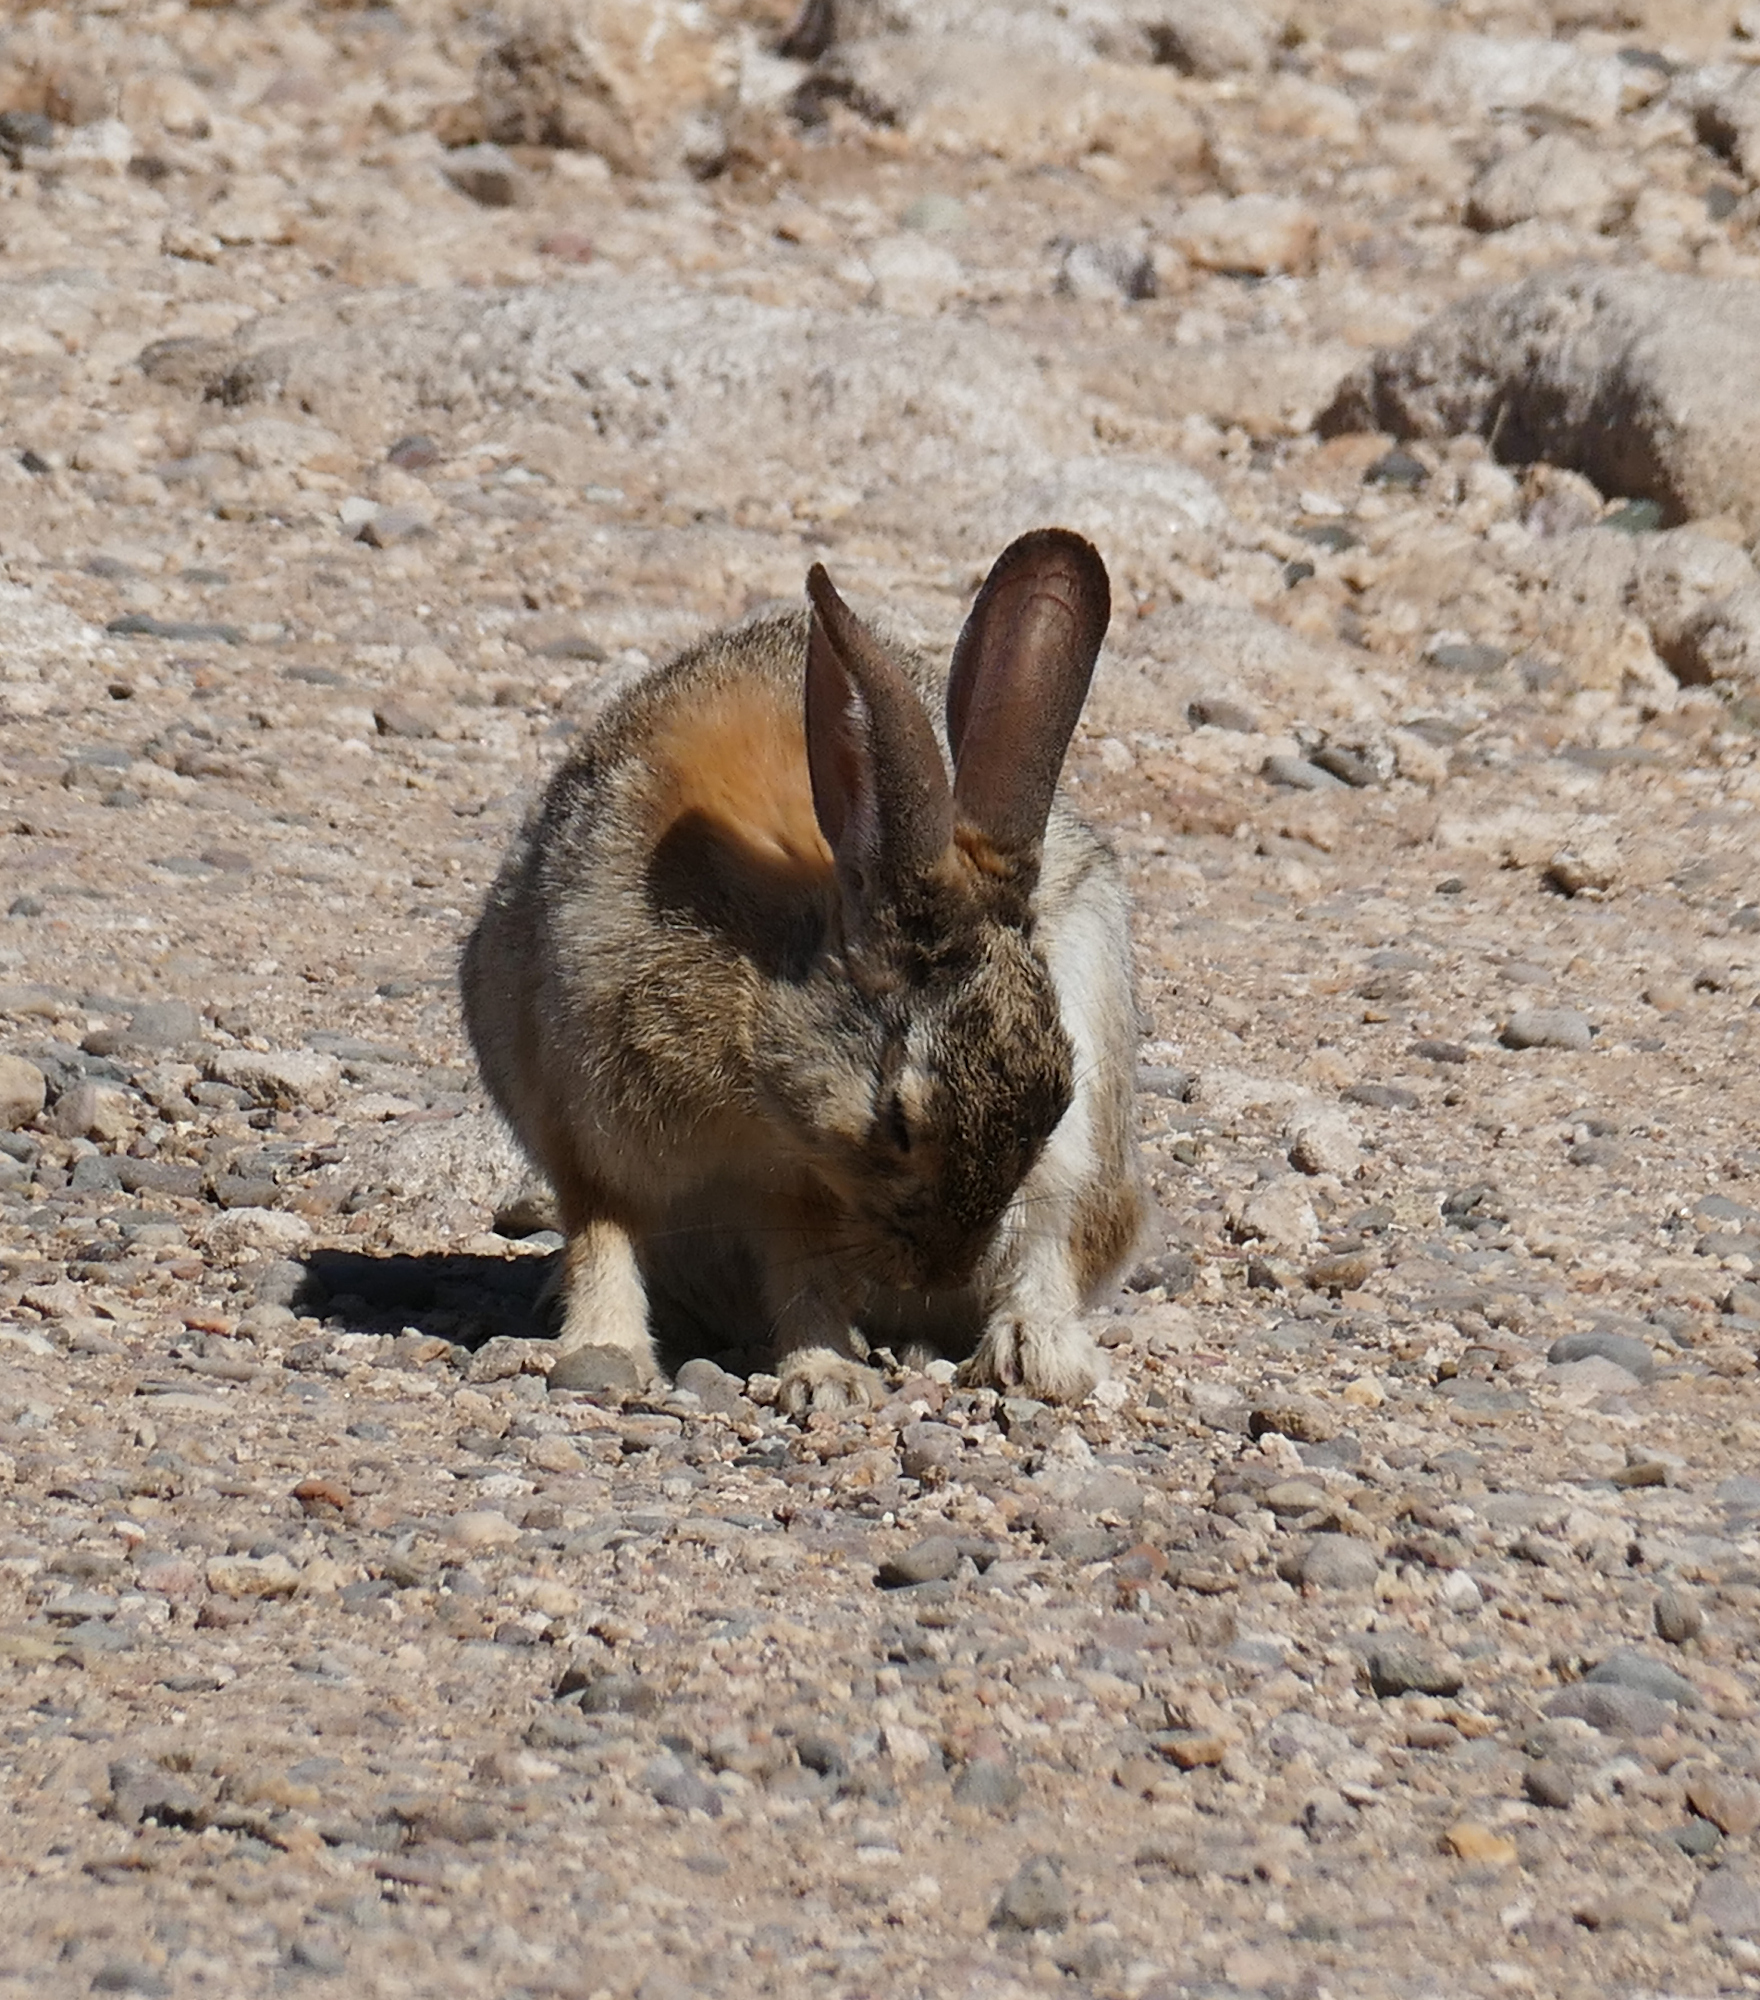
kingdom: Animalia
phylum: Chordata
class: Mammalia
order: Lagomorpha
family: Leporidae
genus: Sylvilagus
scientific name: Sylvilagus audubonii
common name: Desert cottontail
